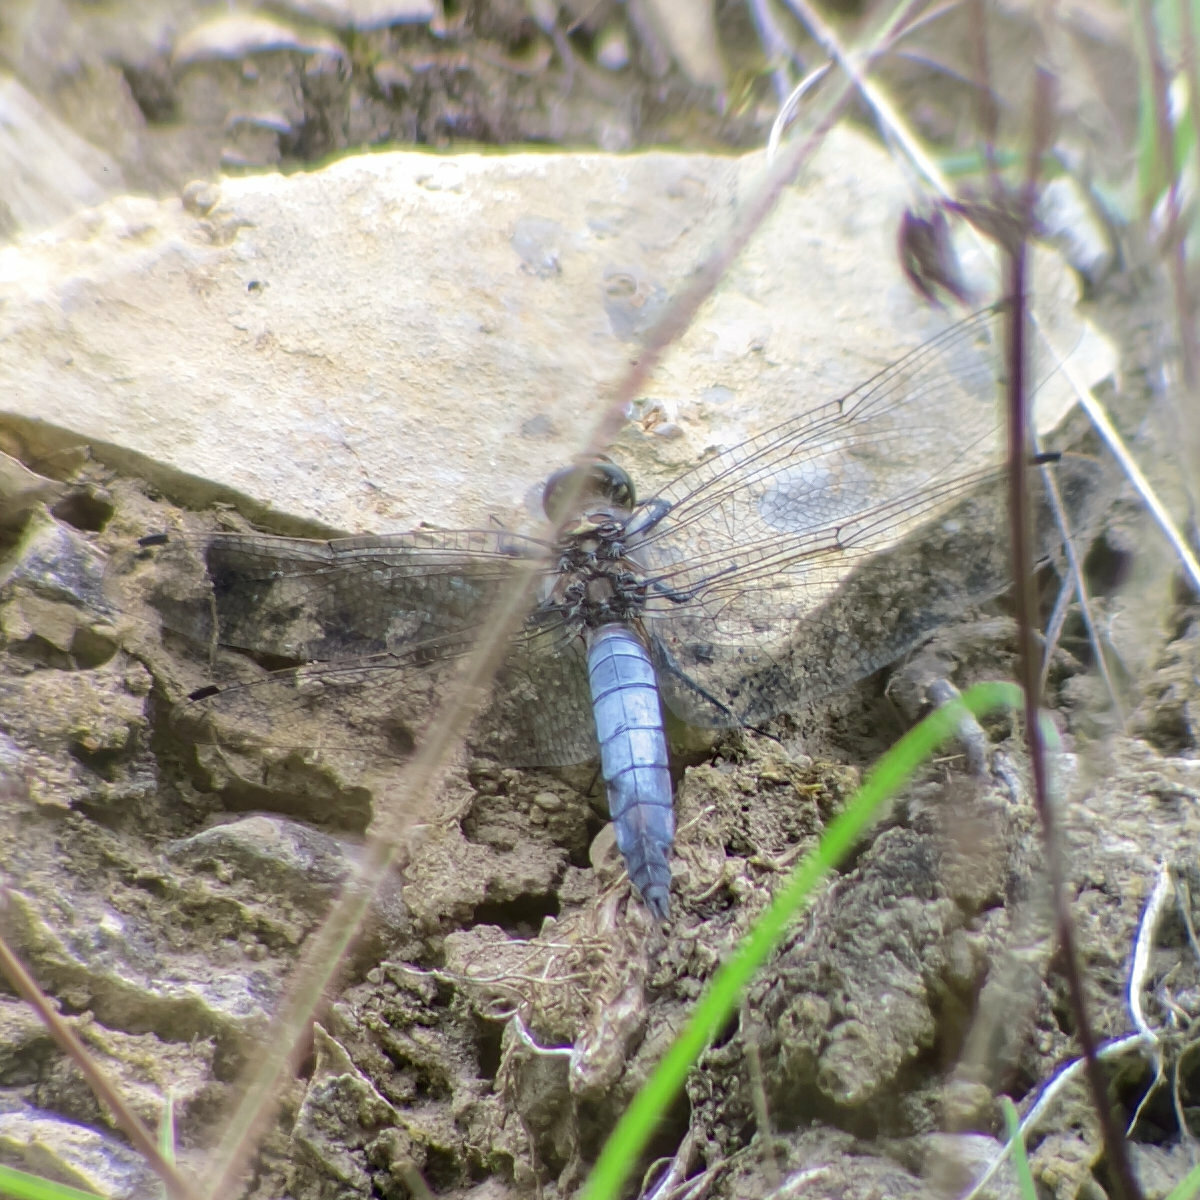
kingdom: Animalia
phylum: Arthropoda
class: Insecta
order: Odonata
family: Libellulidae
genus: Orthetrum
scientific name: Orthetrum cancellatum
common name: Black-tailed skimmer
